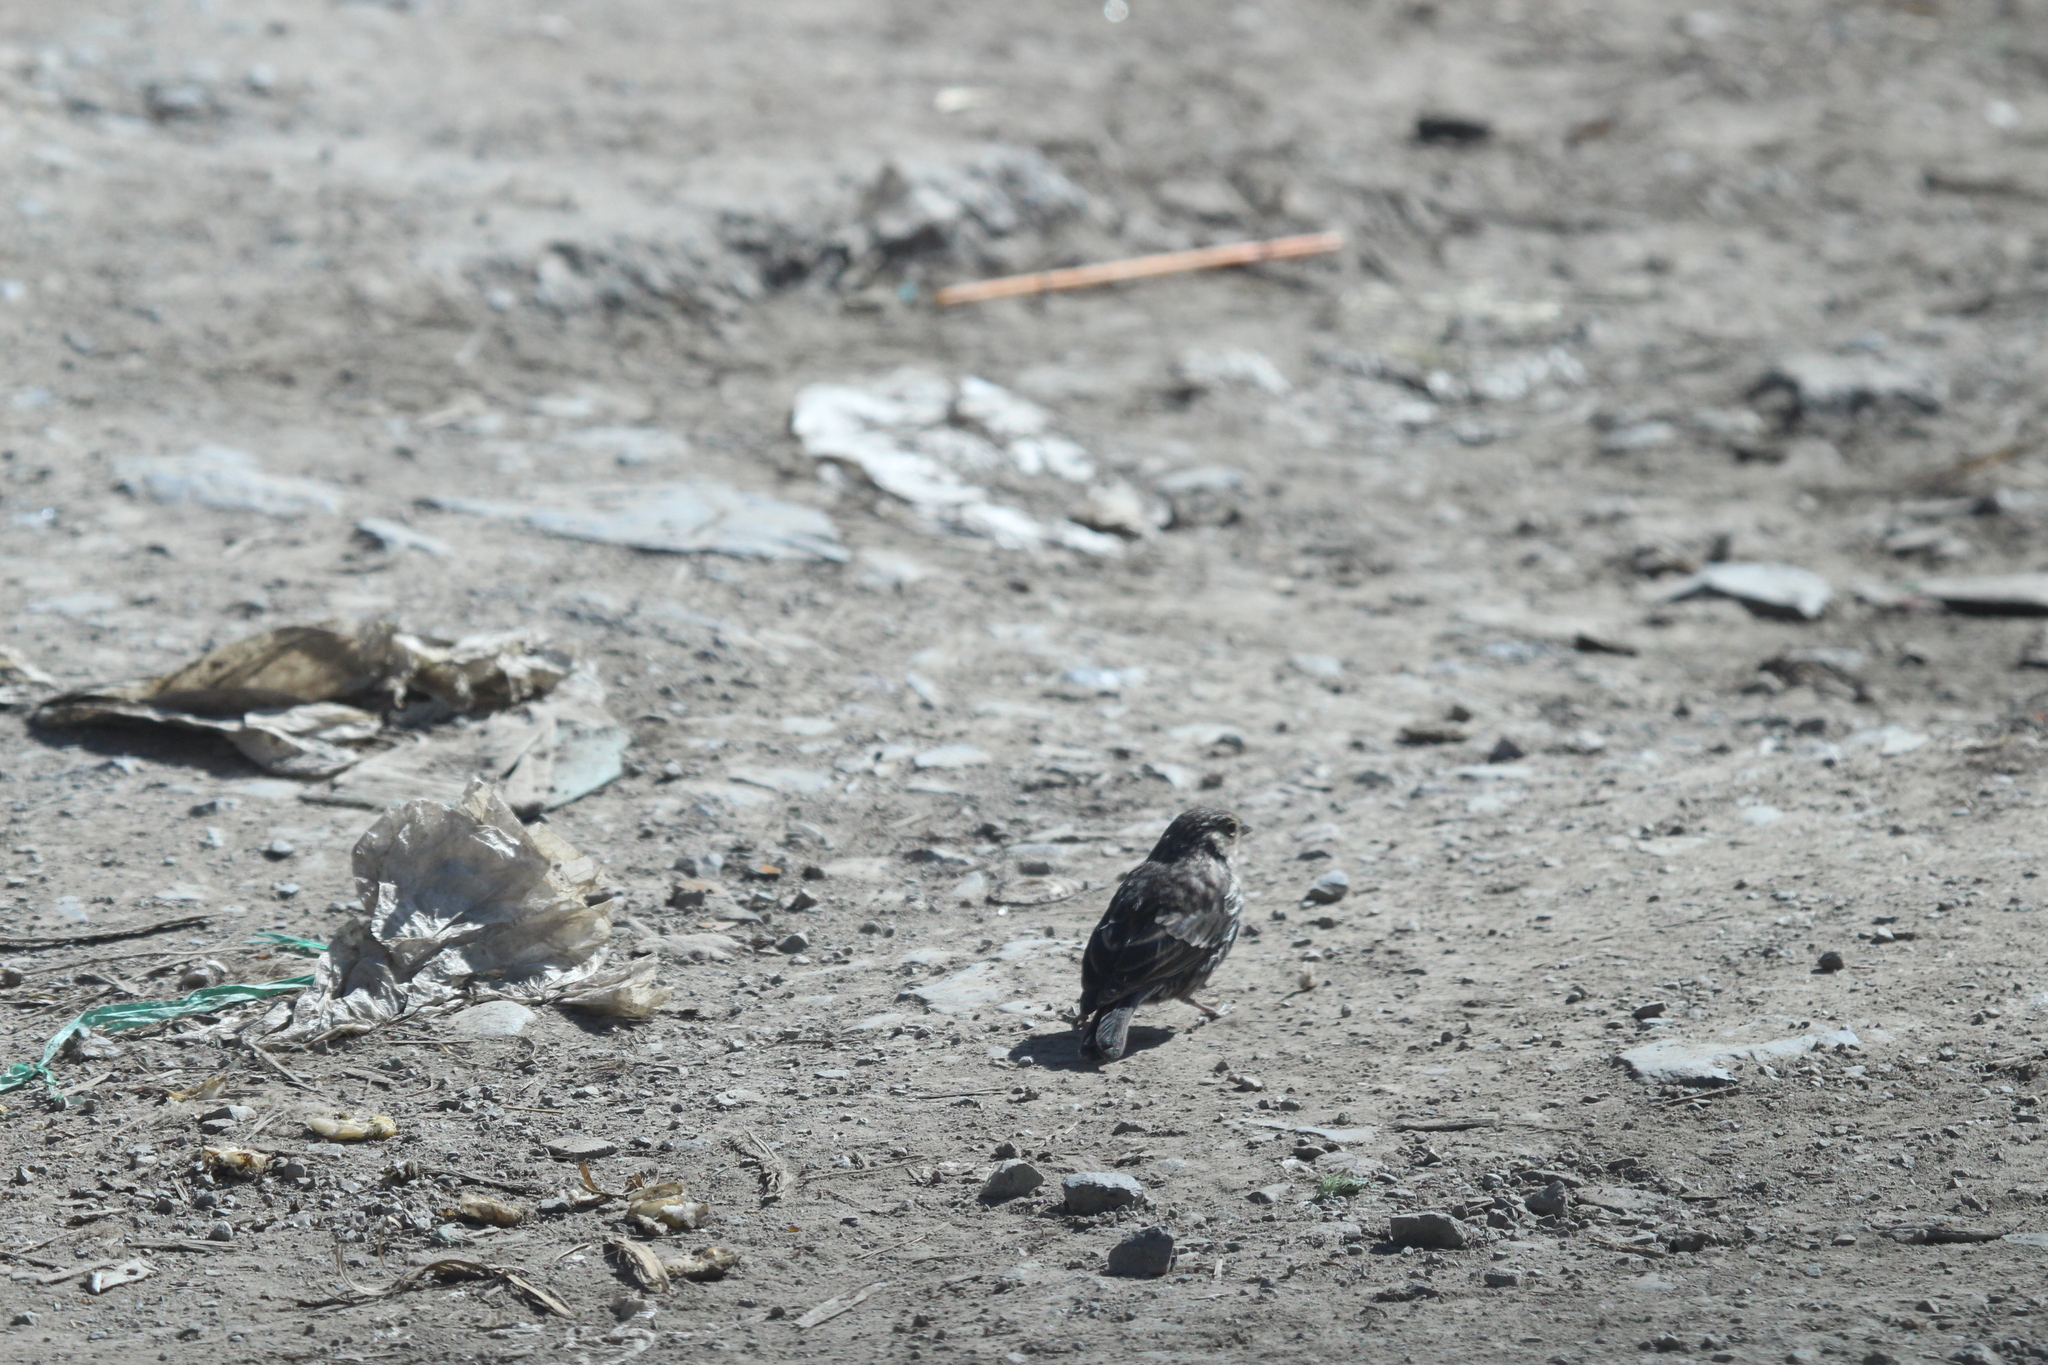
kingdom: Animalia
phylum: Chordata
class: Aves
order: Passeriformes
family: Thraupidae
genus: Geospizopsis
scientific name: Geospizopsis plebejus
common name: Ash-breasted sierra-finch
